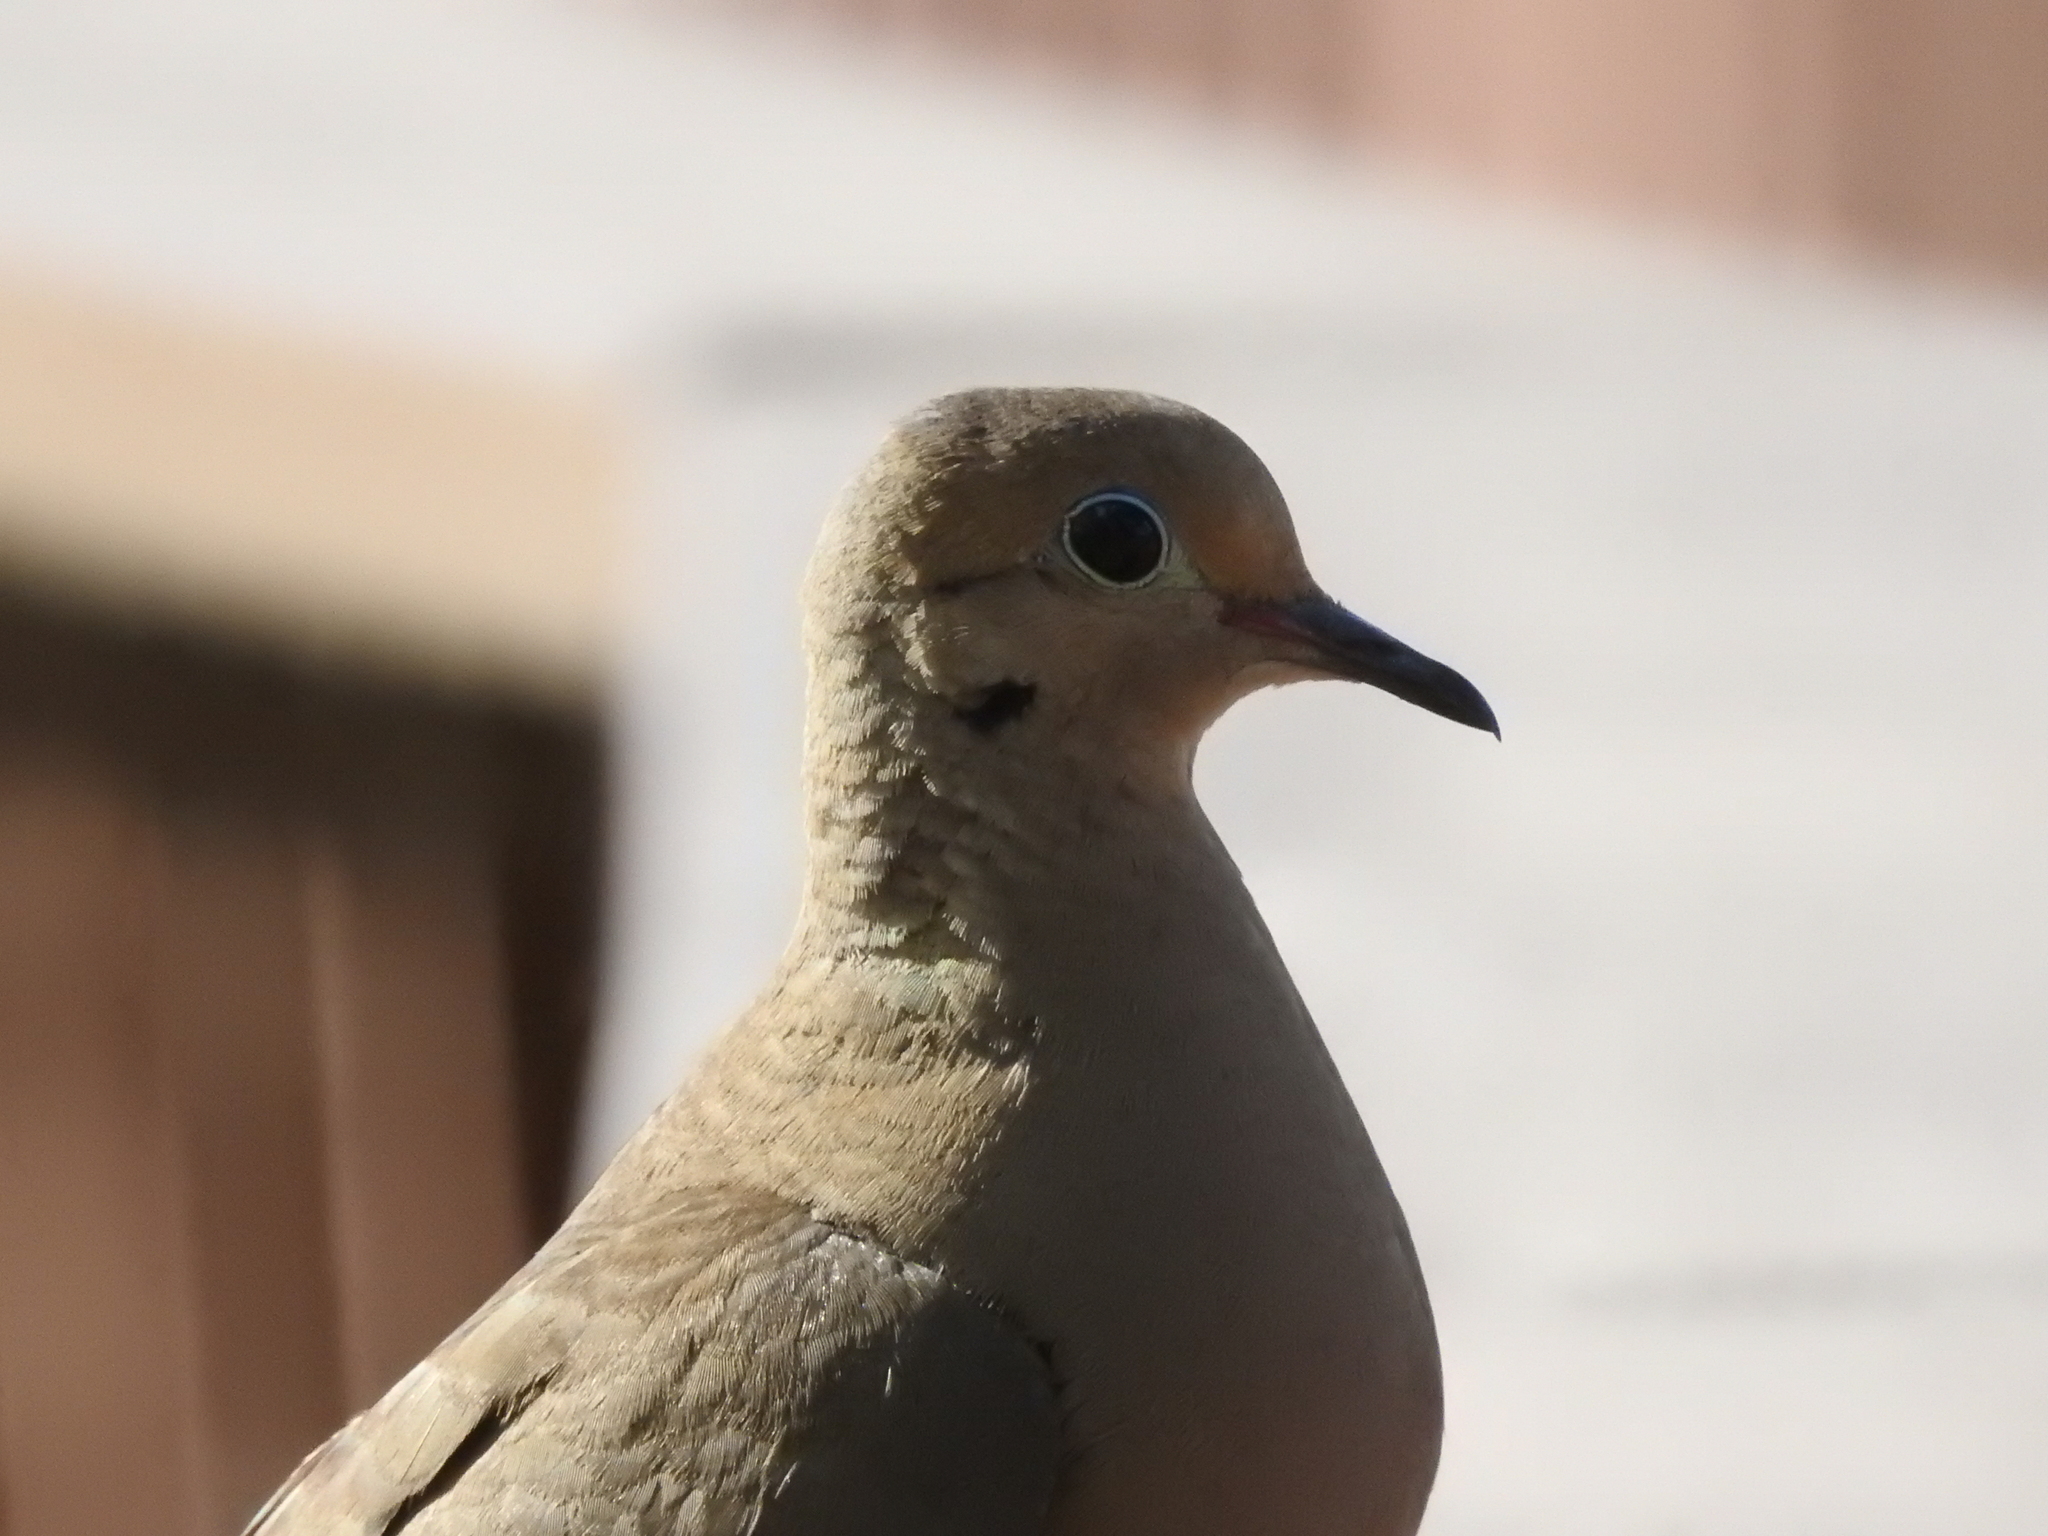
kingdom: Animalia
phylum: Chordata
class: Aves
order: Columbiformes
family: Columbidae
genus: Zenaida
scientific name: Zenaida macroura
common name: Mourning dove
